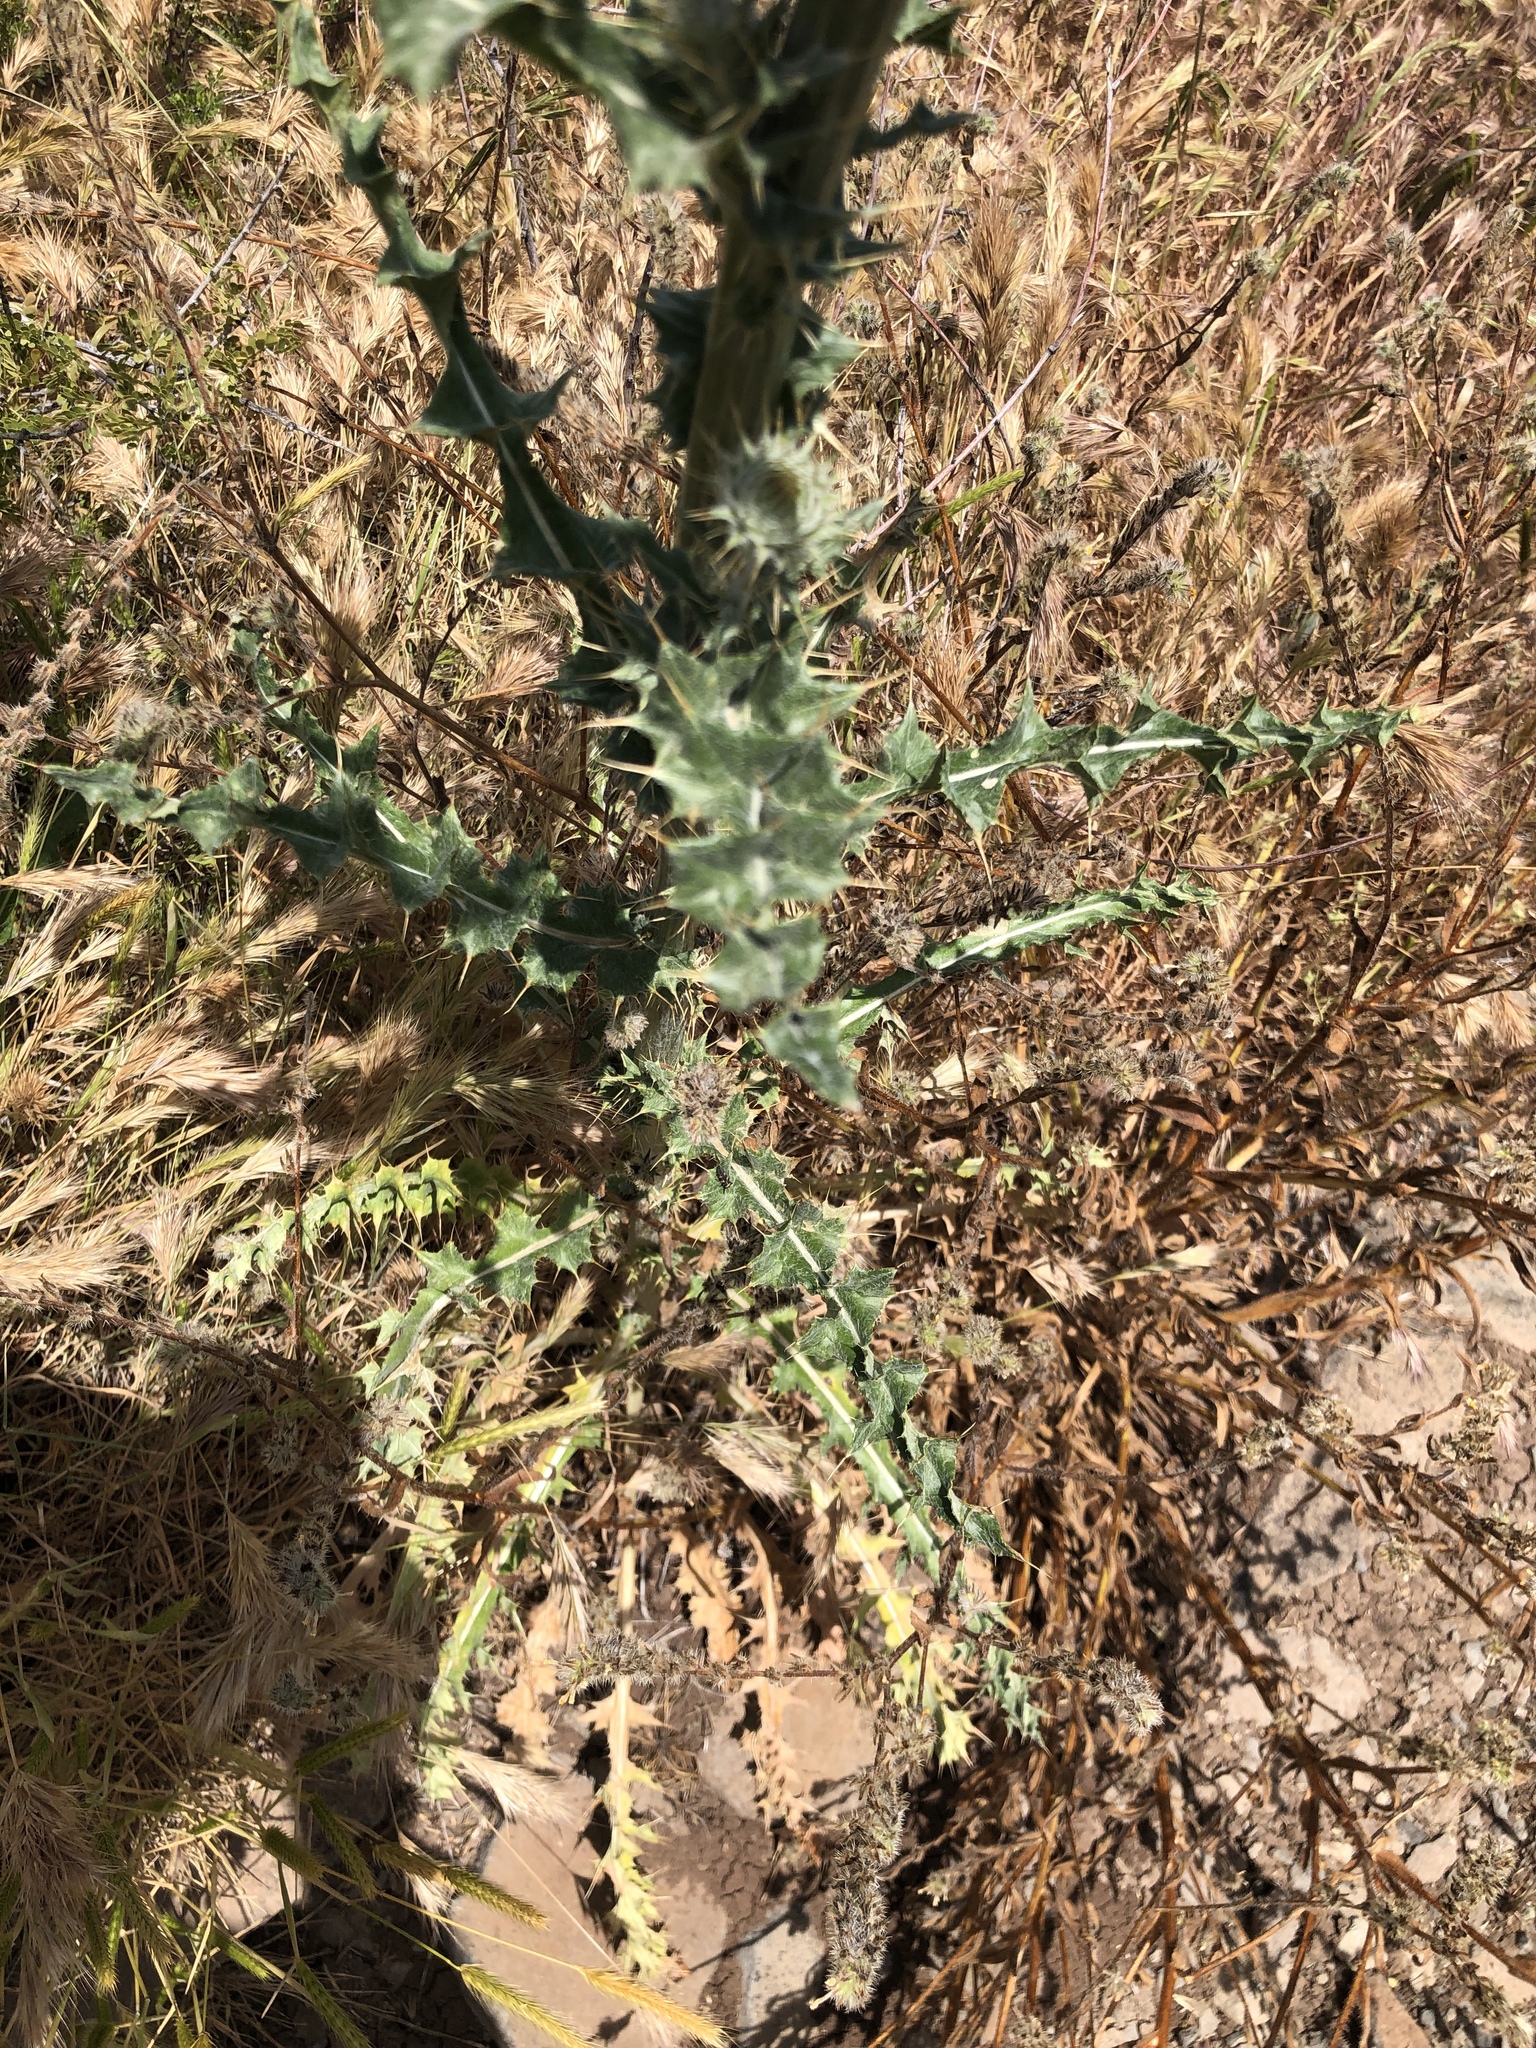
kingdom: Plantae
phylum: Tracheophyta
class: Magnoliopsida
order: Asterales
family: Asteraceae
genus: Cirsium
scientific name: Cirsium neomexicanum
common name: New mexico thistle
